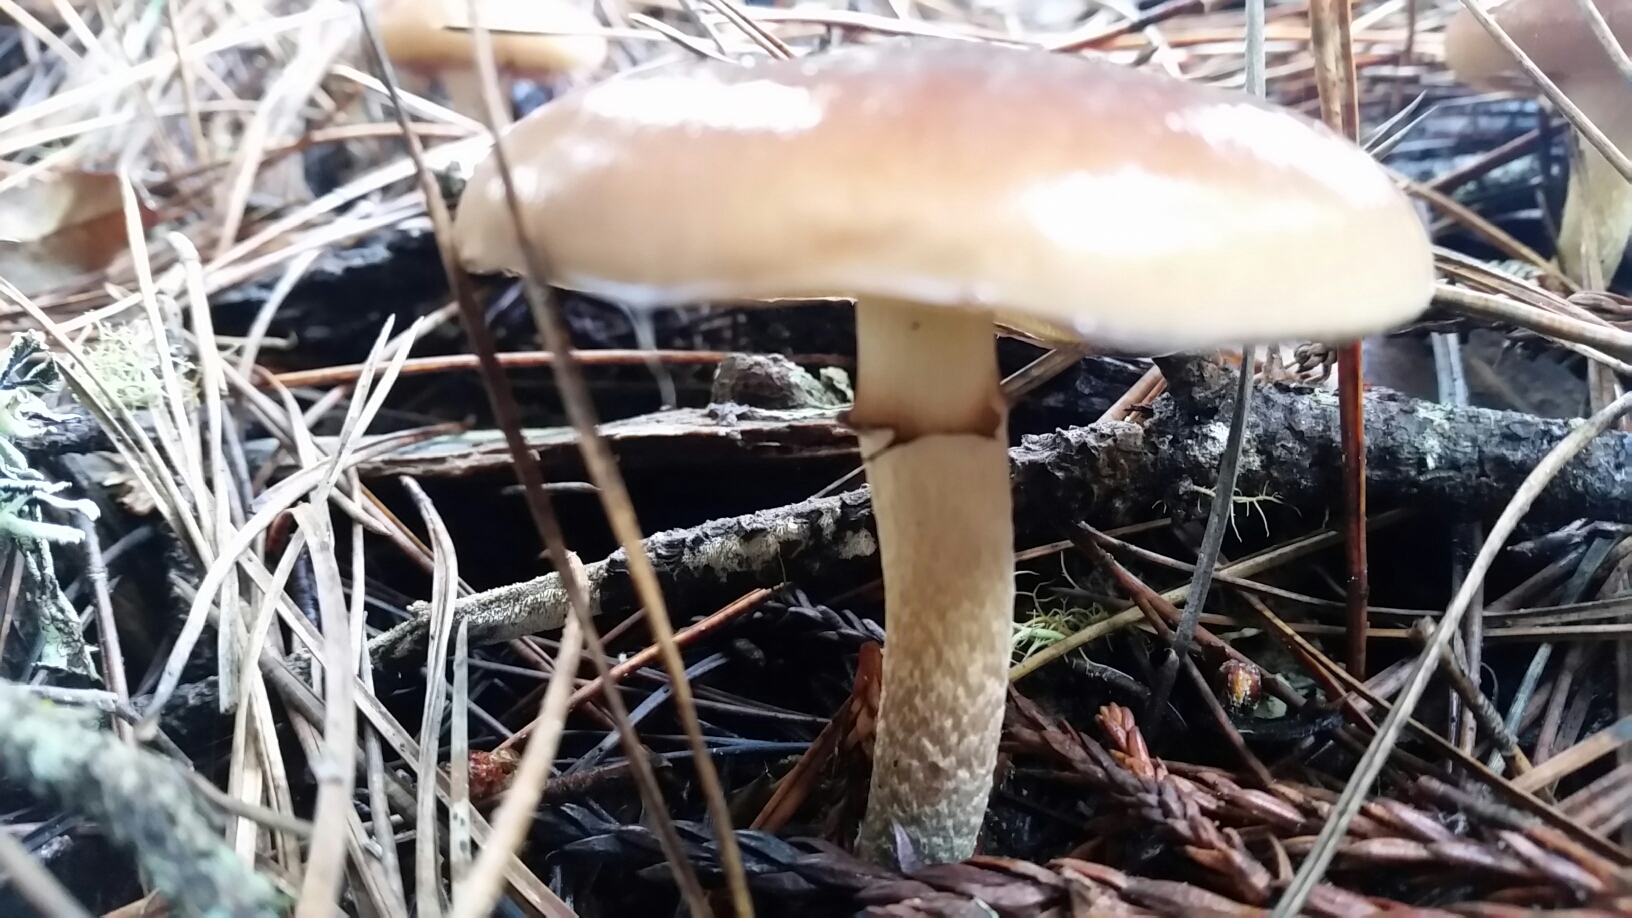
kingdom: Fungi
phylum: Basidiomycota
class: Agaricomycetes
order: Agaricales
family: Strophariaceae
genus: Pholiota
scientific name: Pholiota velaglutinosa
